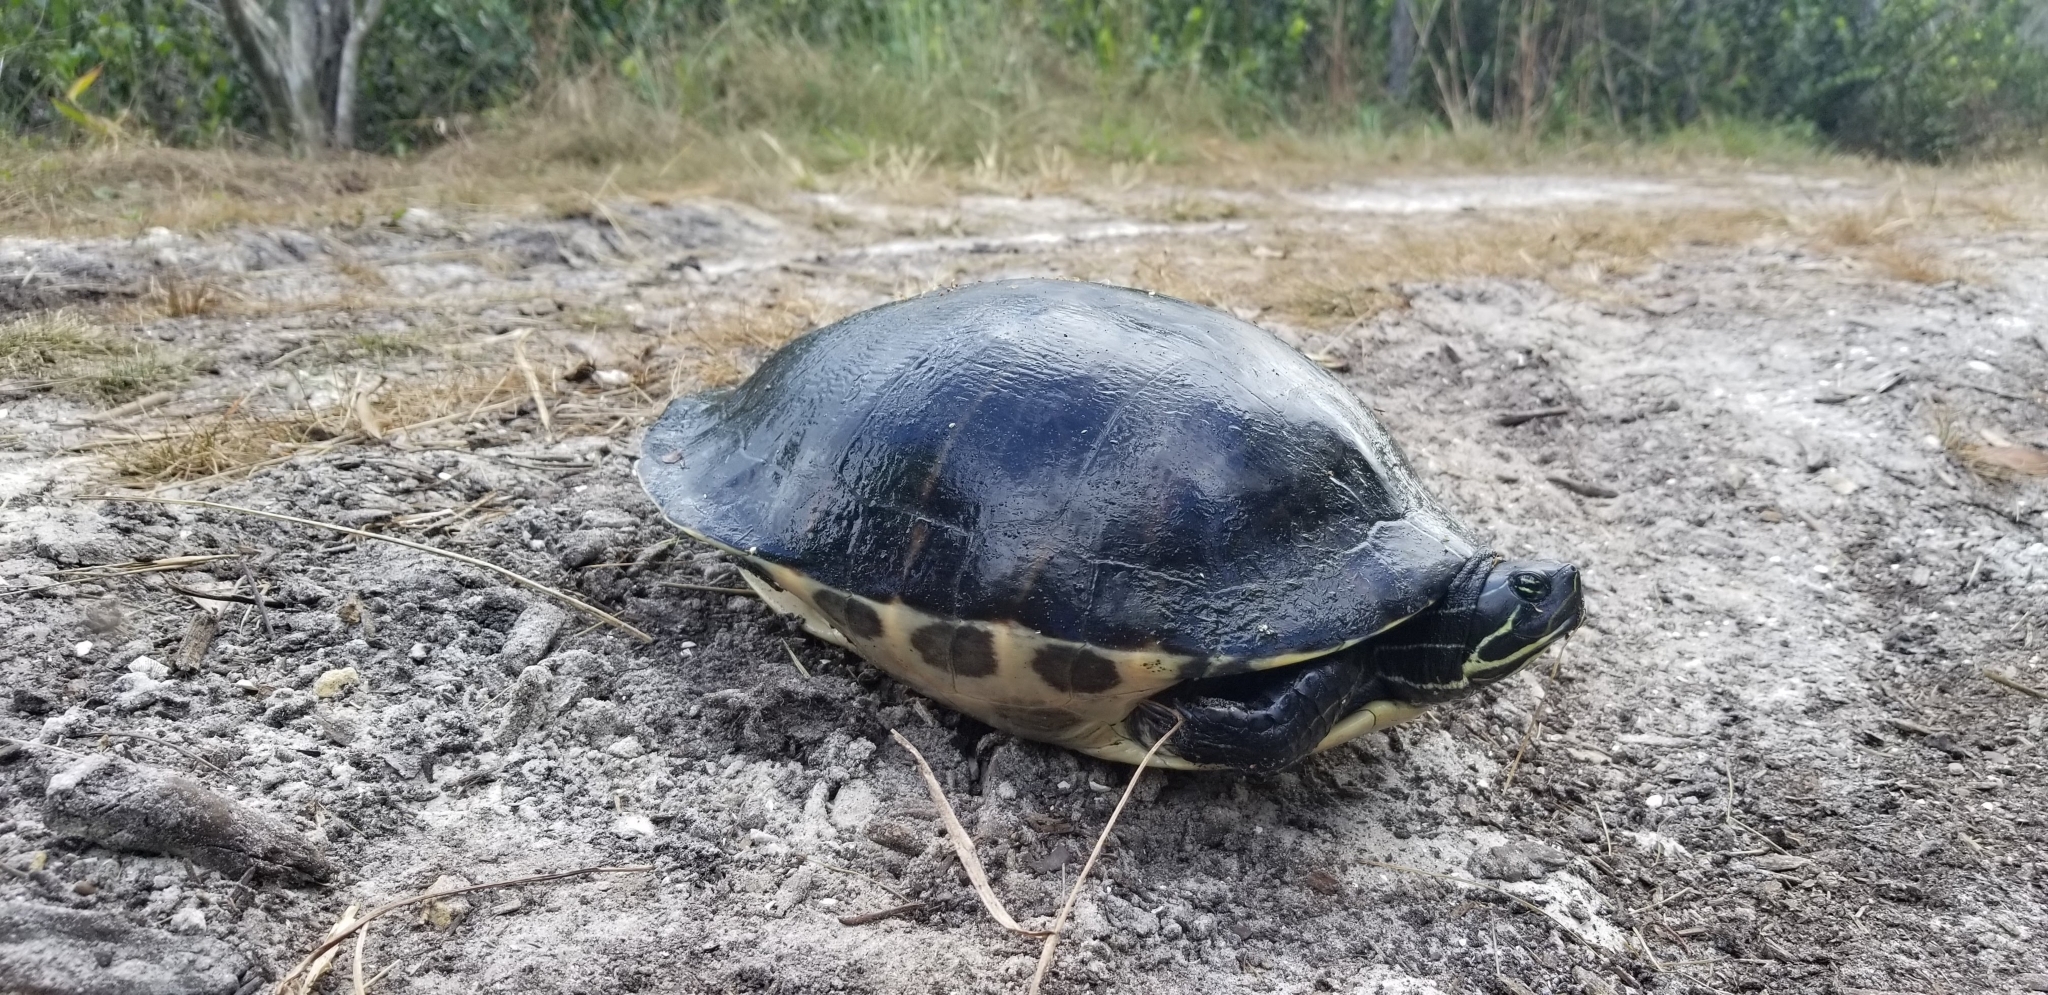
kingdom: Animalia
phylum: Chordata
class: Testudines
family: Emydidae
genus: Pseudemys
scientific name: Pseudemys peninsularis
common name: Peninsula cooter
